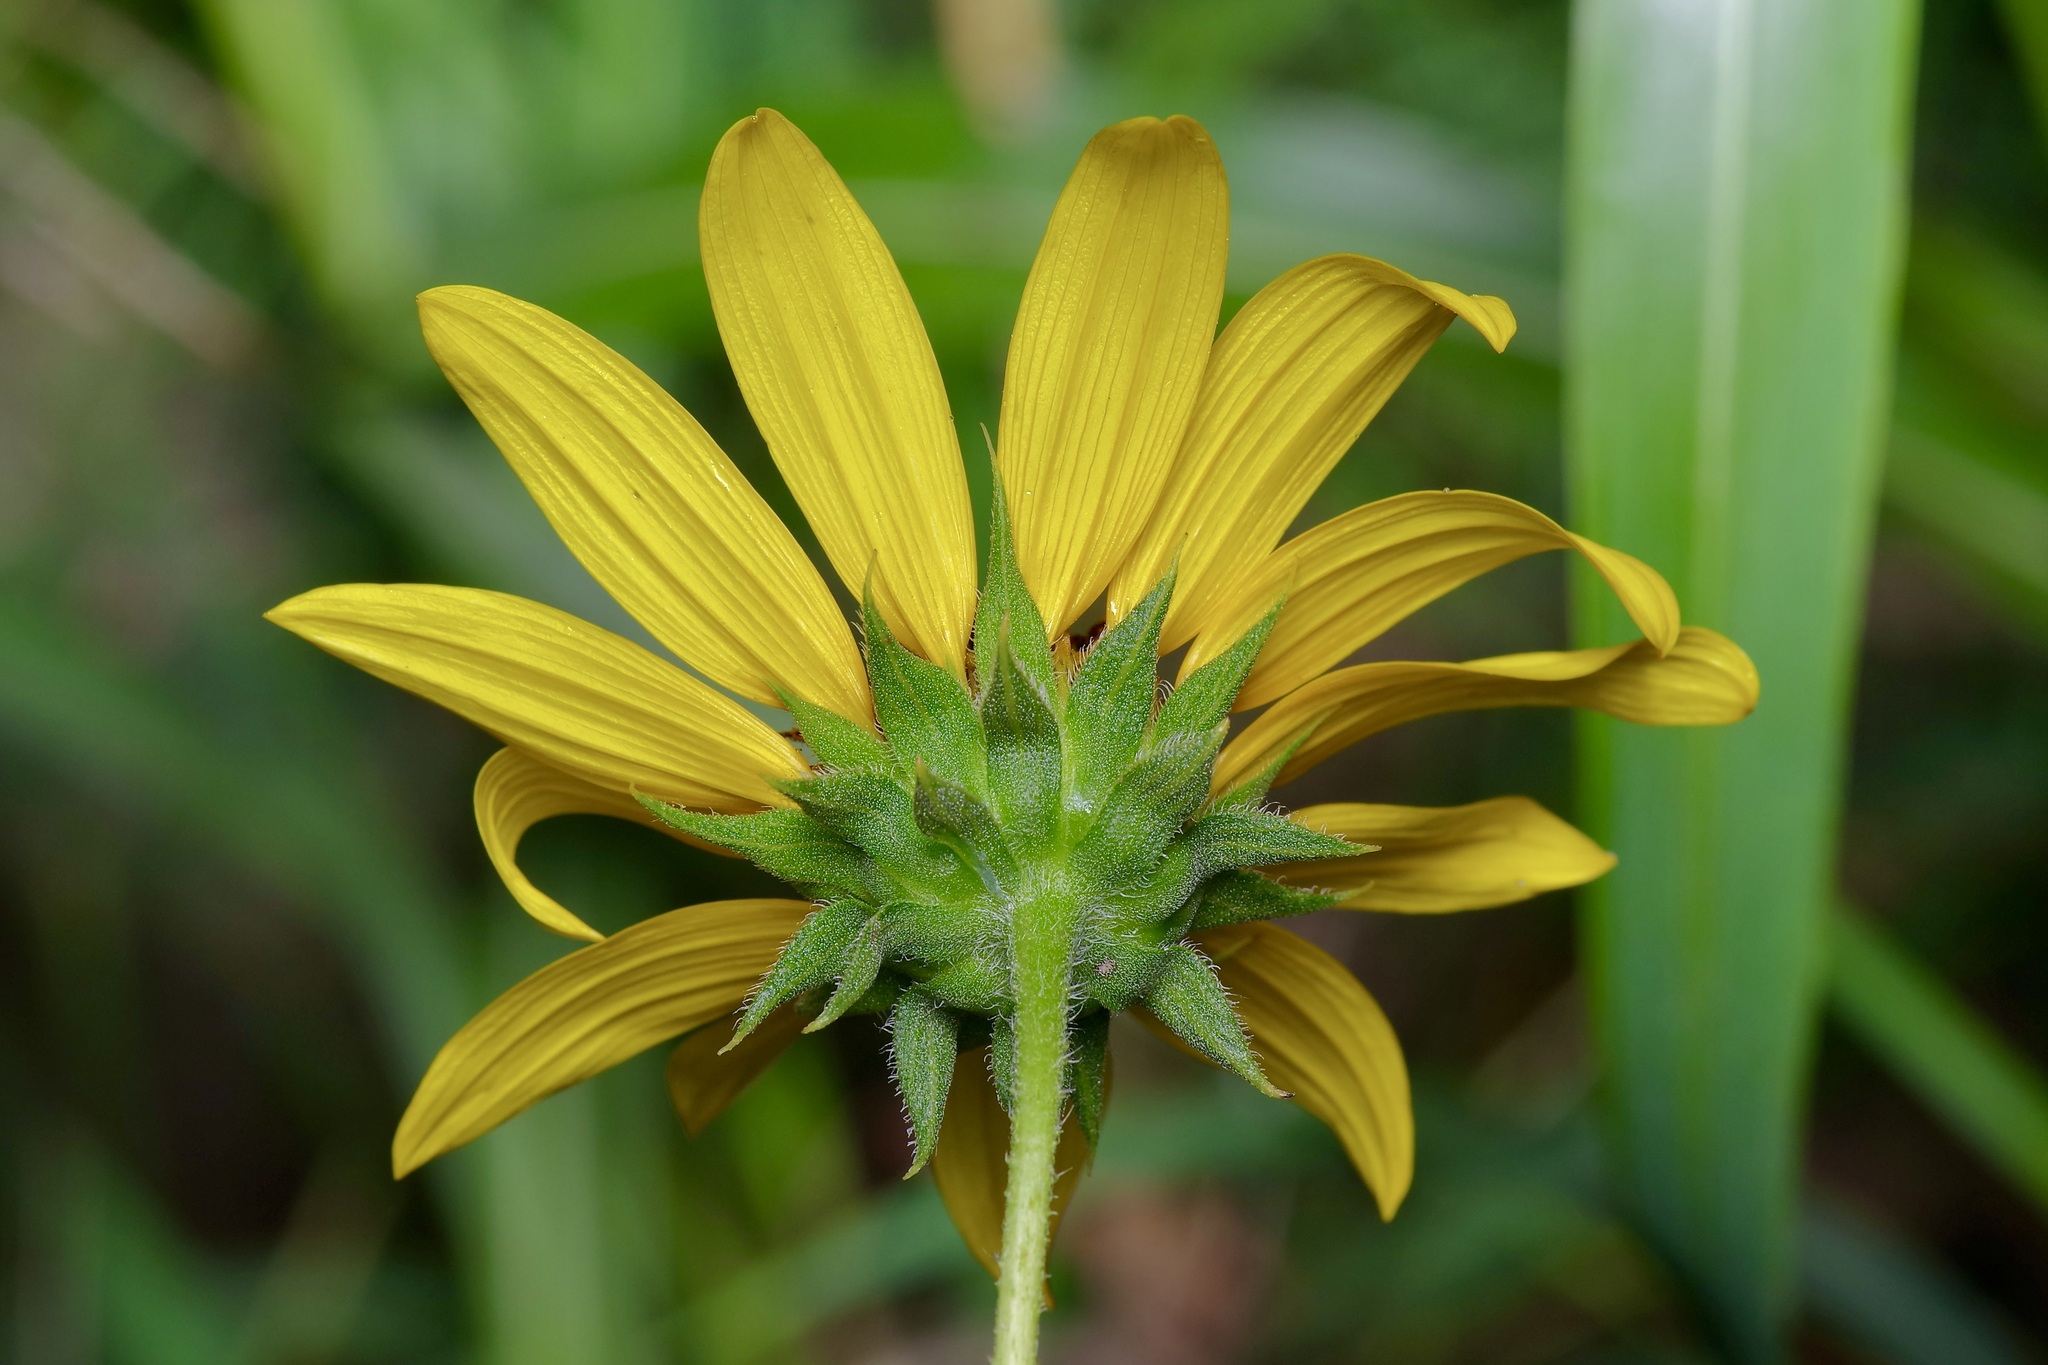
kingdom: Plantae
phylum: Tracheophyta
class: Magnoliopsida
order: Asterales
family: Asteraceae
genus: Helianthus
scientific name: Helianthus annuus
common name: Sunflower
